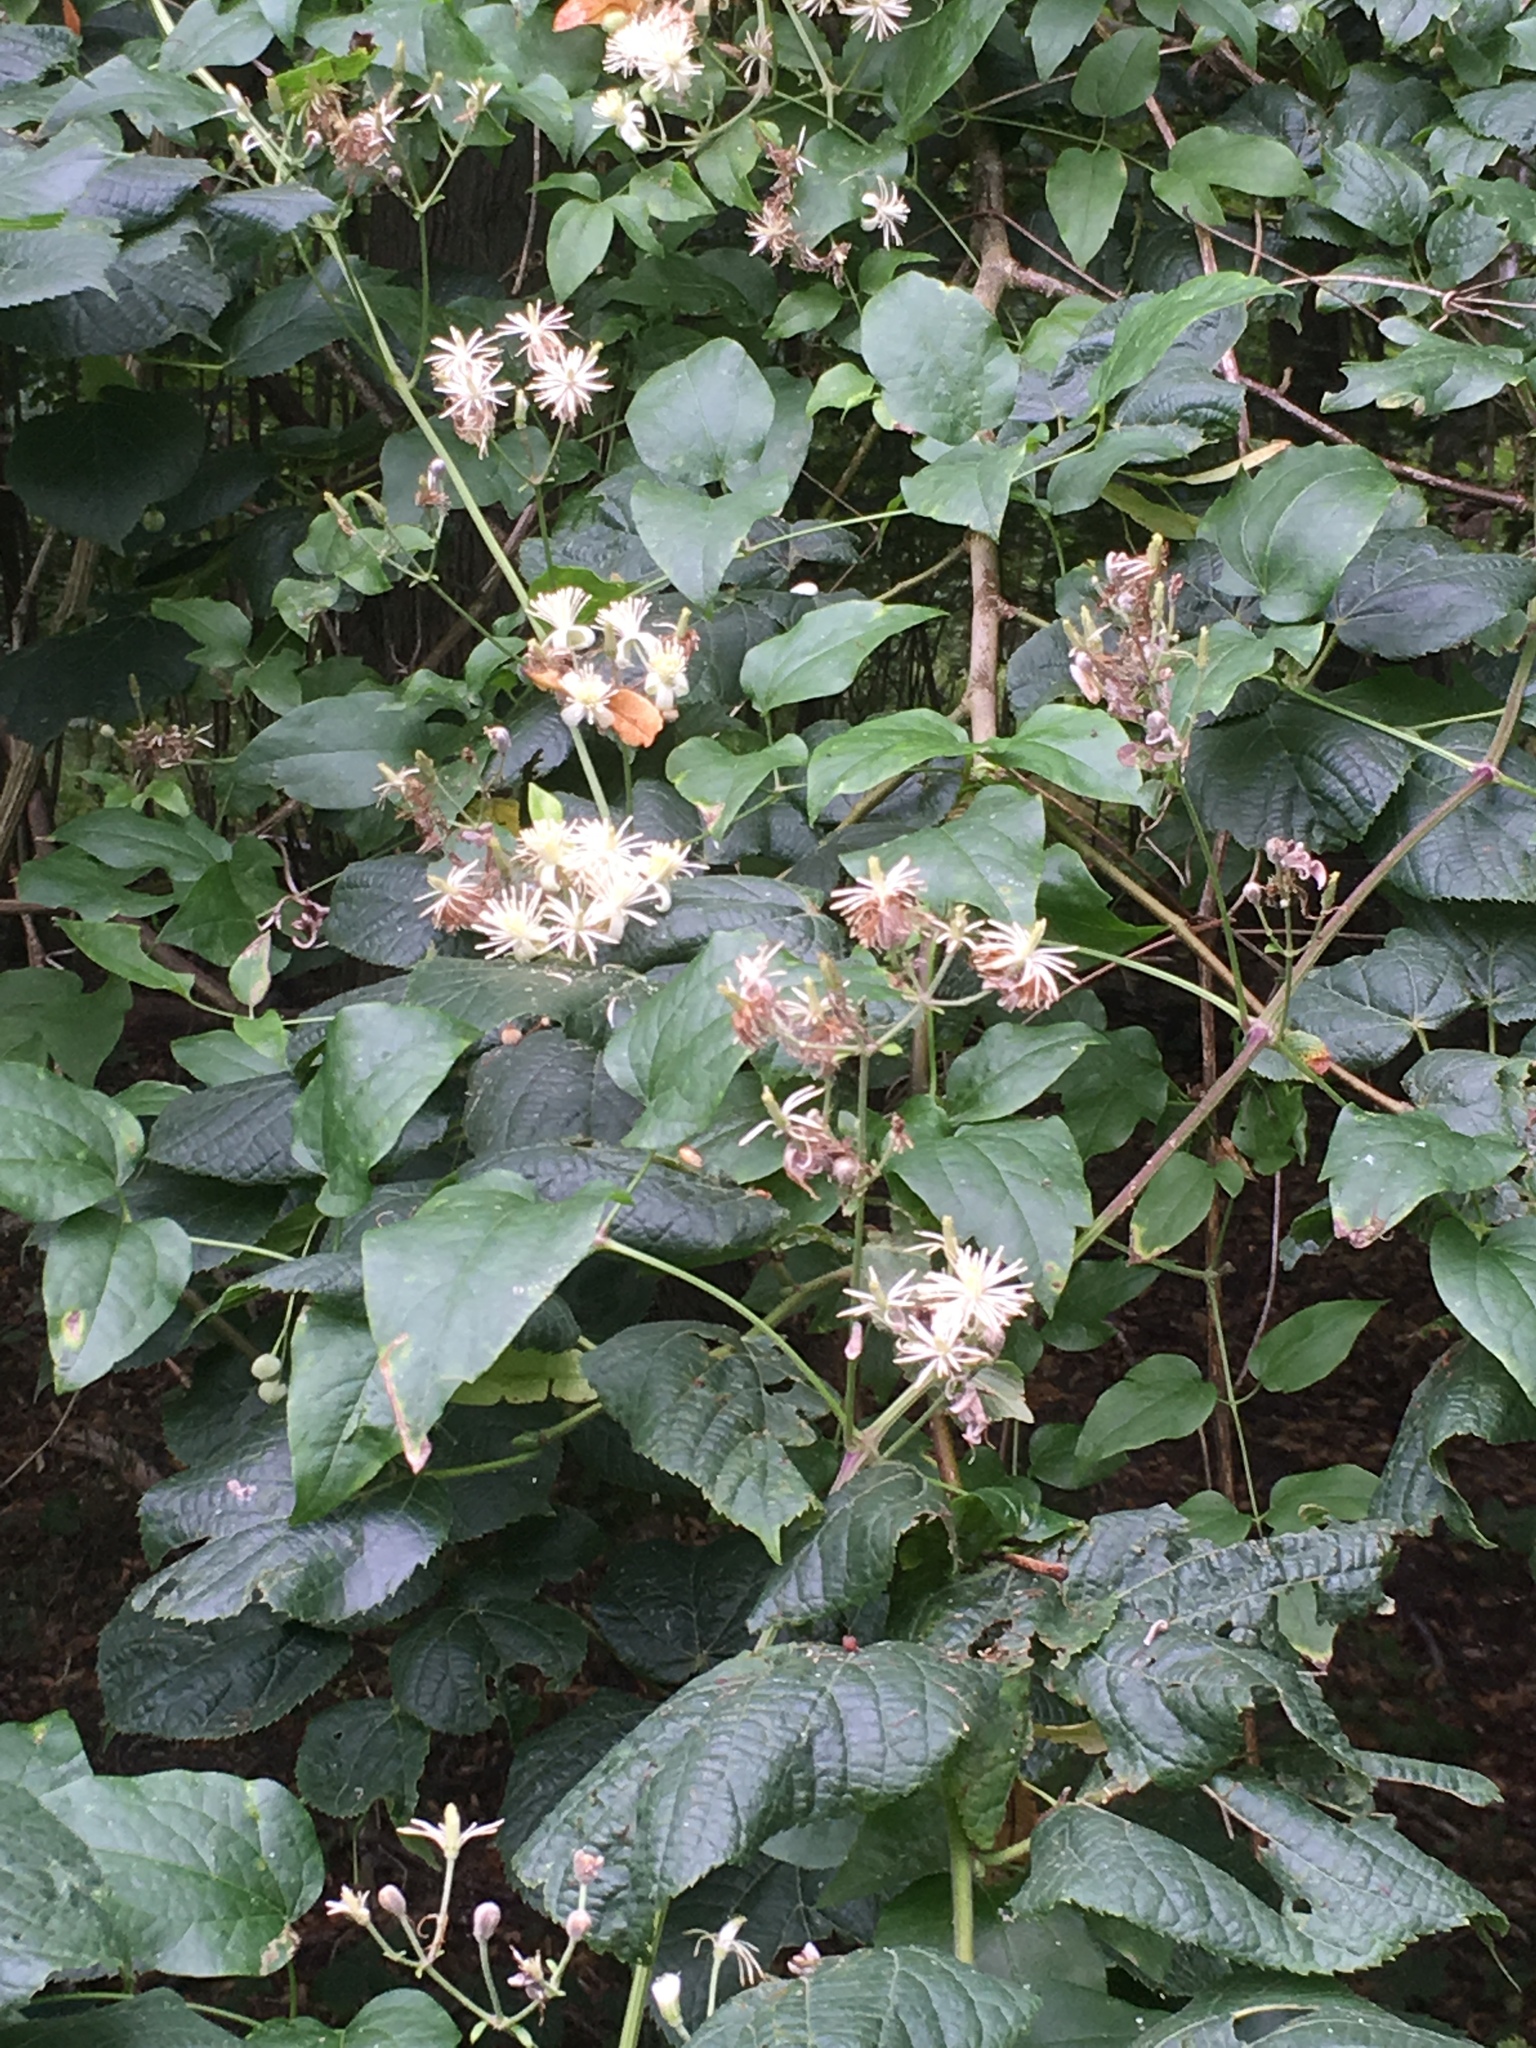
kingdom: Plantae
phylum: Tracheophyta
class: Magnoliopsida
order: Ranunculales
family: Ranunculaceae
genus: Clematis
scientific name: Clematis vitalba
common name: Evergreen clematis
